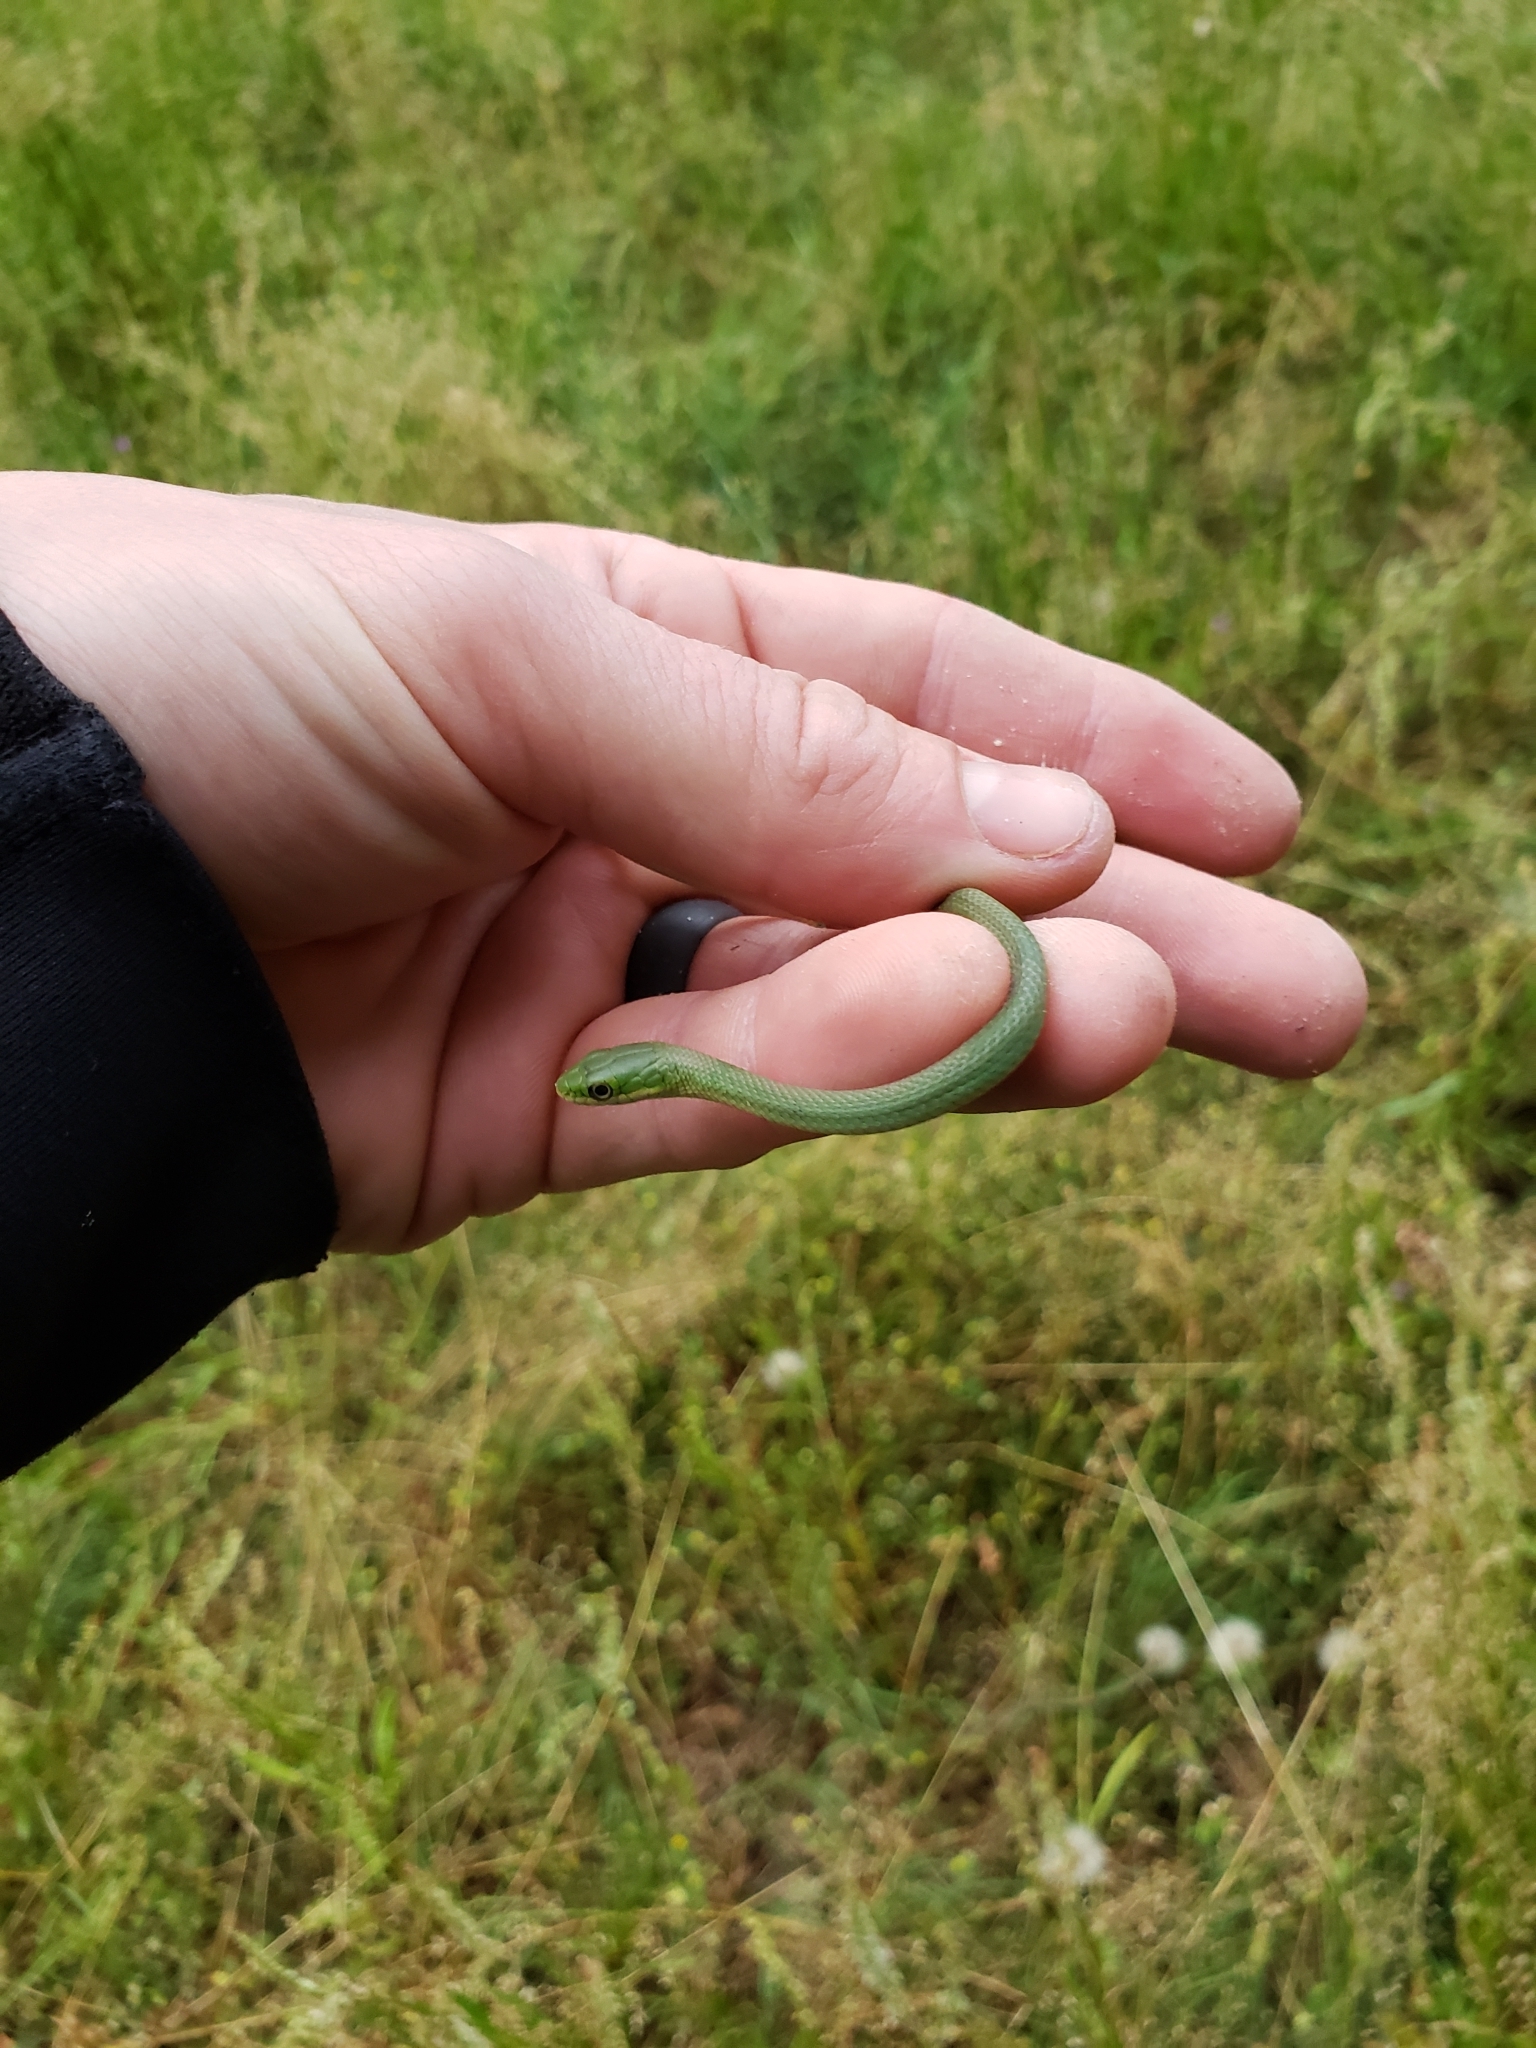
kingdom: Animalia
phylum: Chordata
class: Squamata
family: Colubridae
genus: Opheodrys
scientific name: Opheodrys aestivus
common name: Rough greensnake
